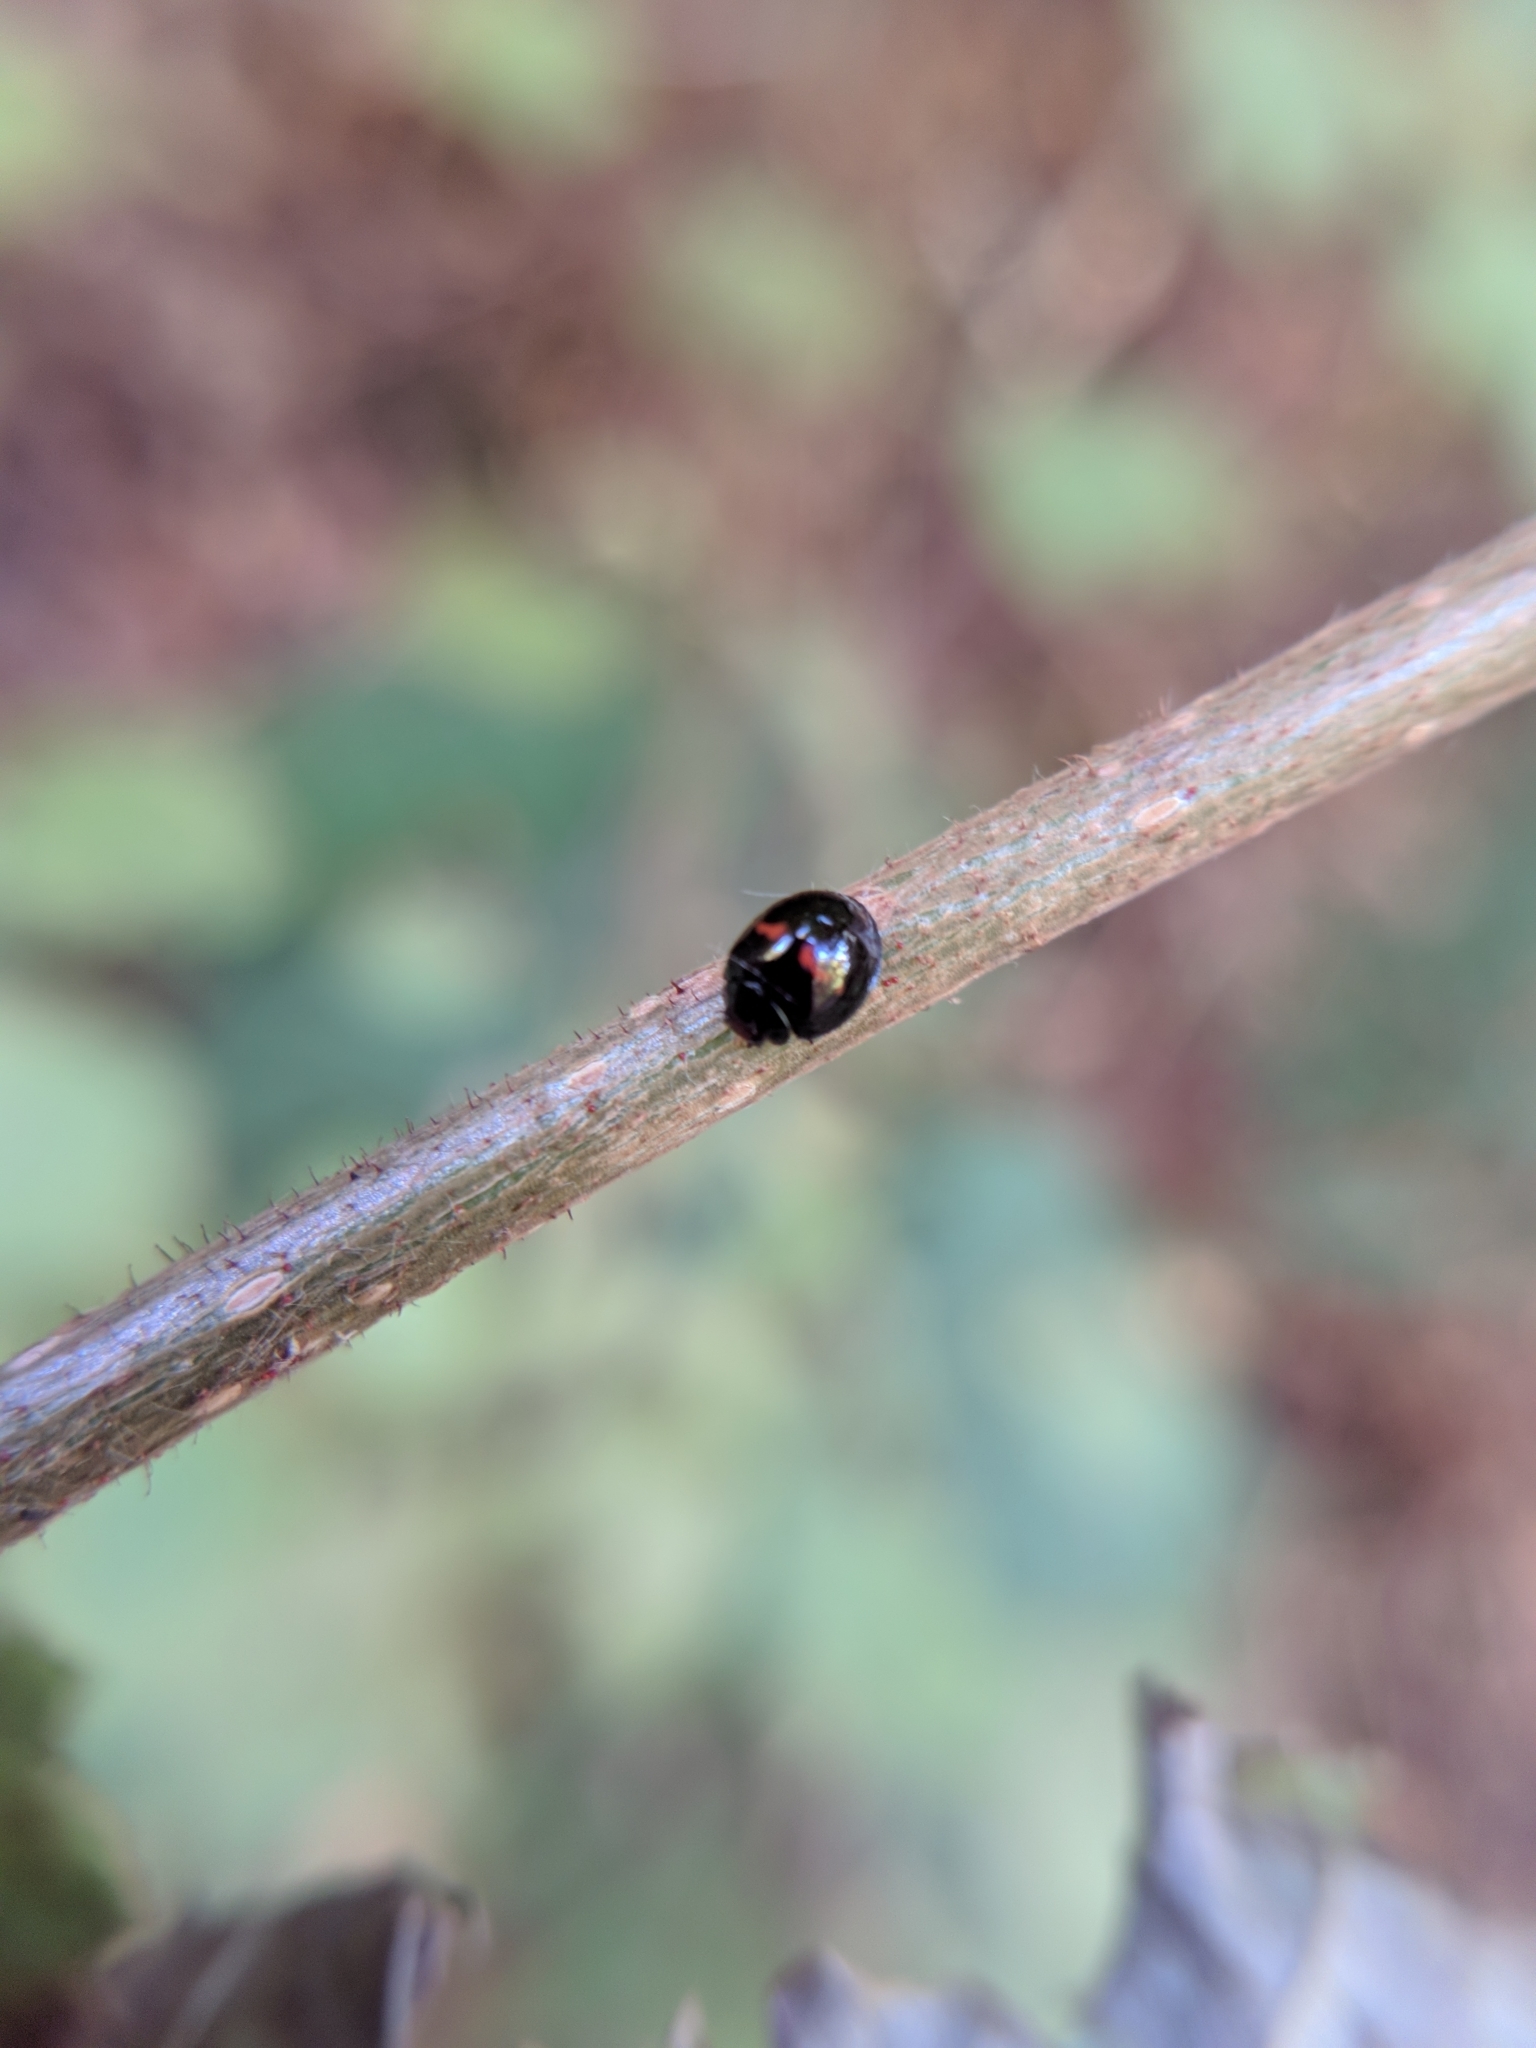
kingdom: Animalia
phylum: Arthropoda
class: Insecta
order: Coleoptera
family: Coccinellidae
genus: Chilocorus
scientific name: Chilocorus bipustulatus
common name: Heather ladybird
